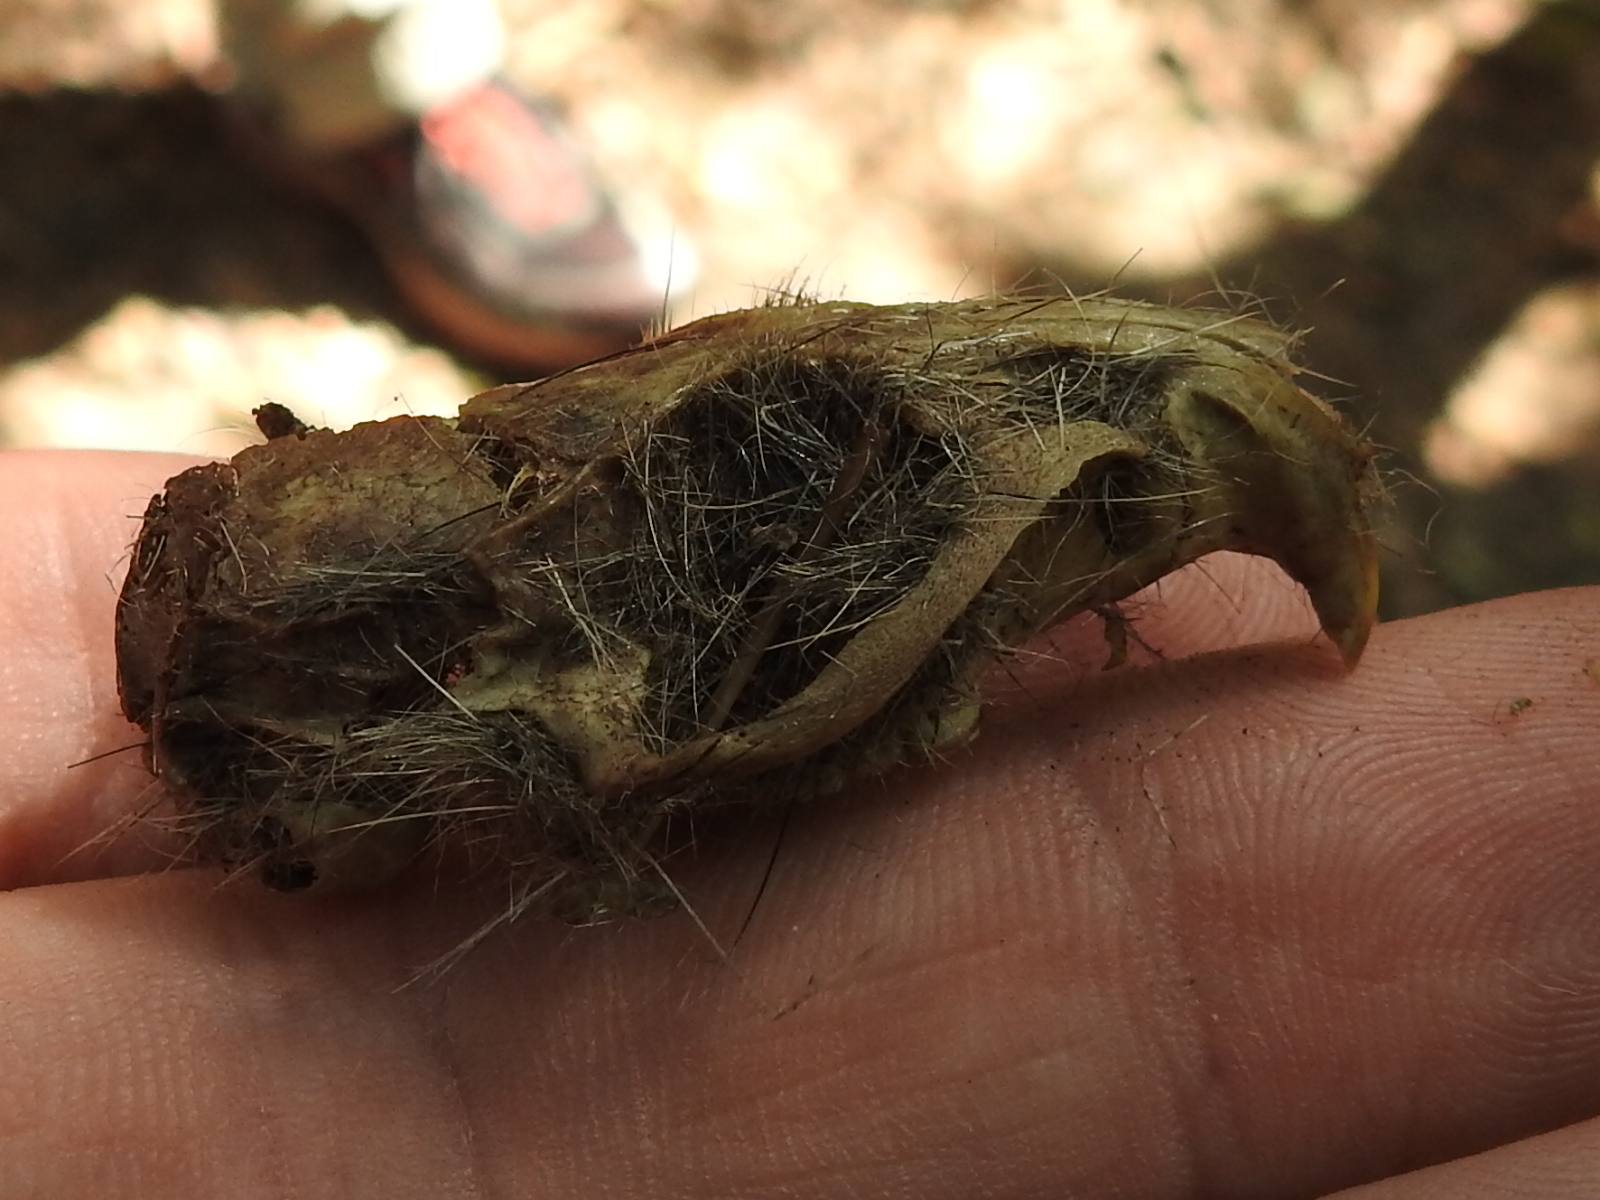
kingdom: Animalia
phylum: Chordata
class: Mammalia
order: Rodentia
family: Cricetidae
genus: Sigmodon
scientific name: Sigmodon hispidus
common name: Hispid cotton rat
